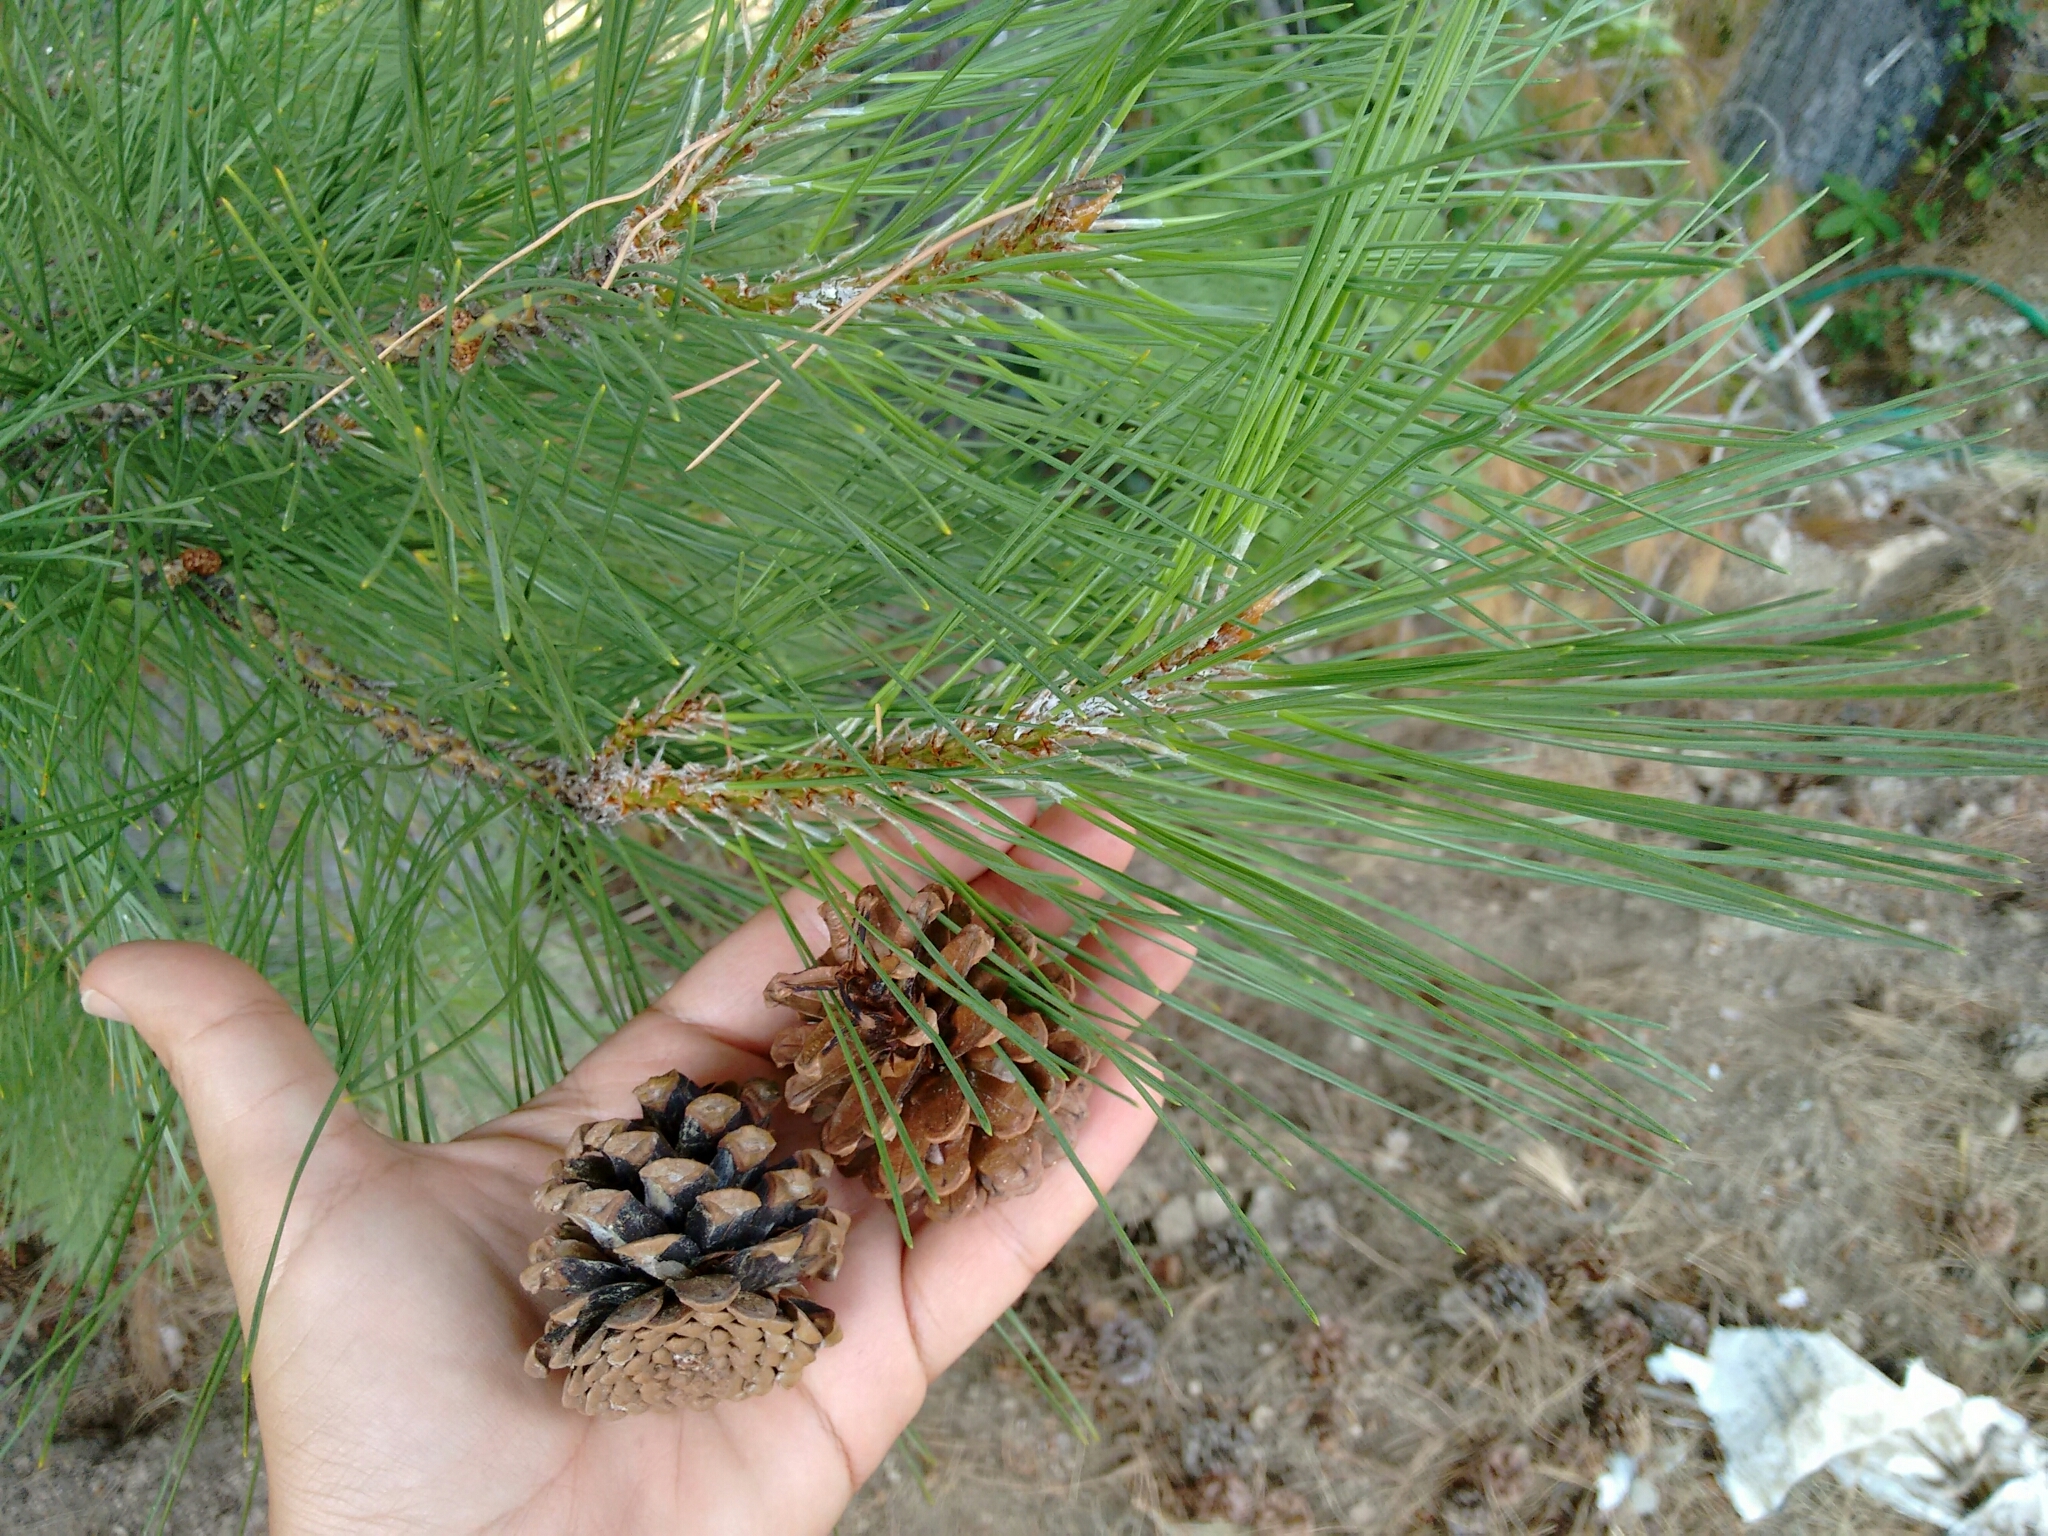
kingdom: Plantae
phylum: Tracheophyta
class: Pinopsida
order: Pinales
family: Pinaceae
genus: Pinus
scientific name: Pinus nigra
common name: Austrian pine
